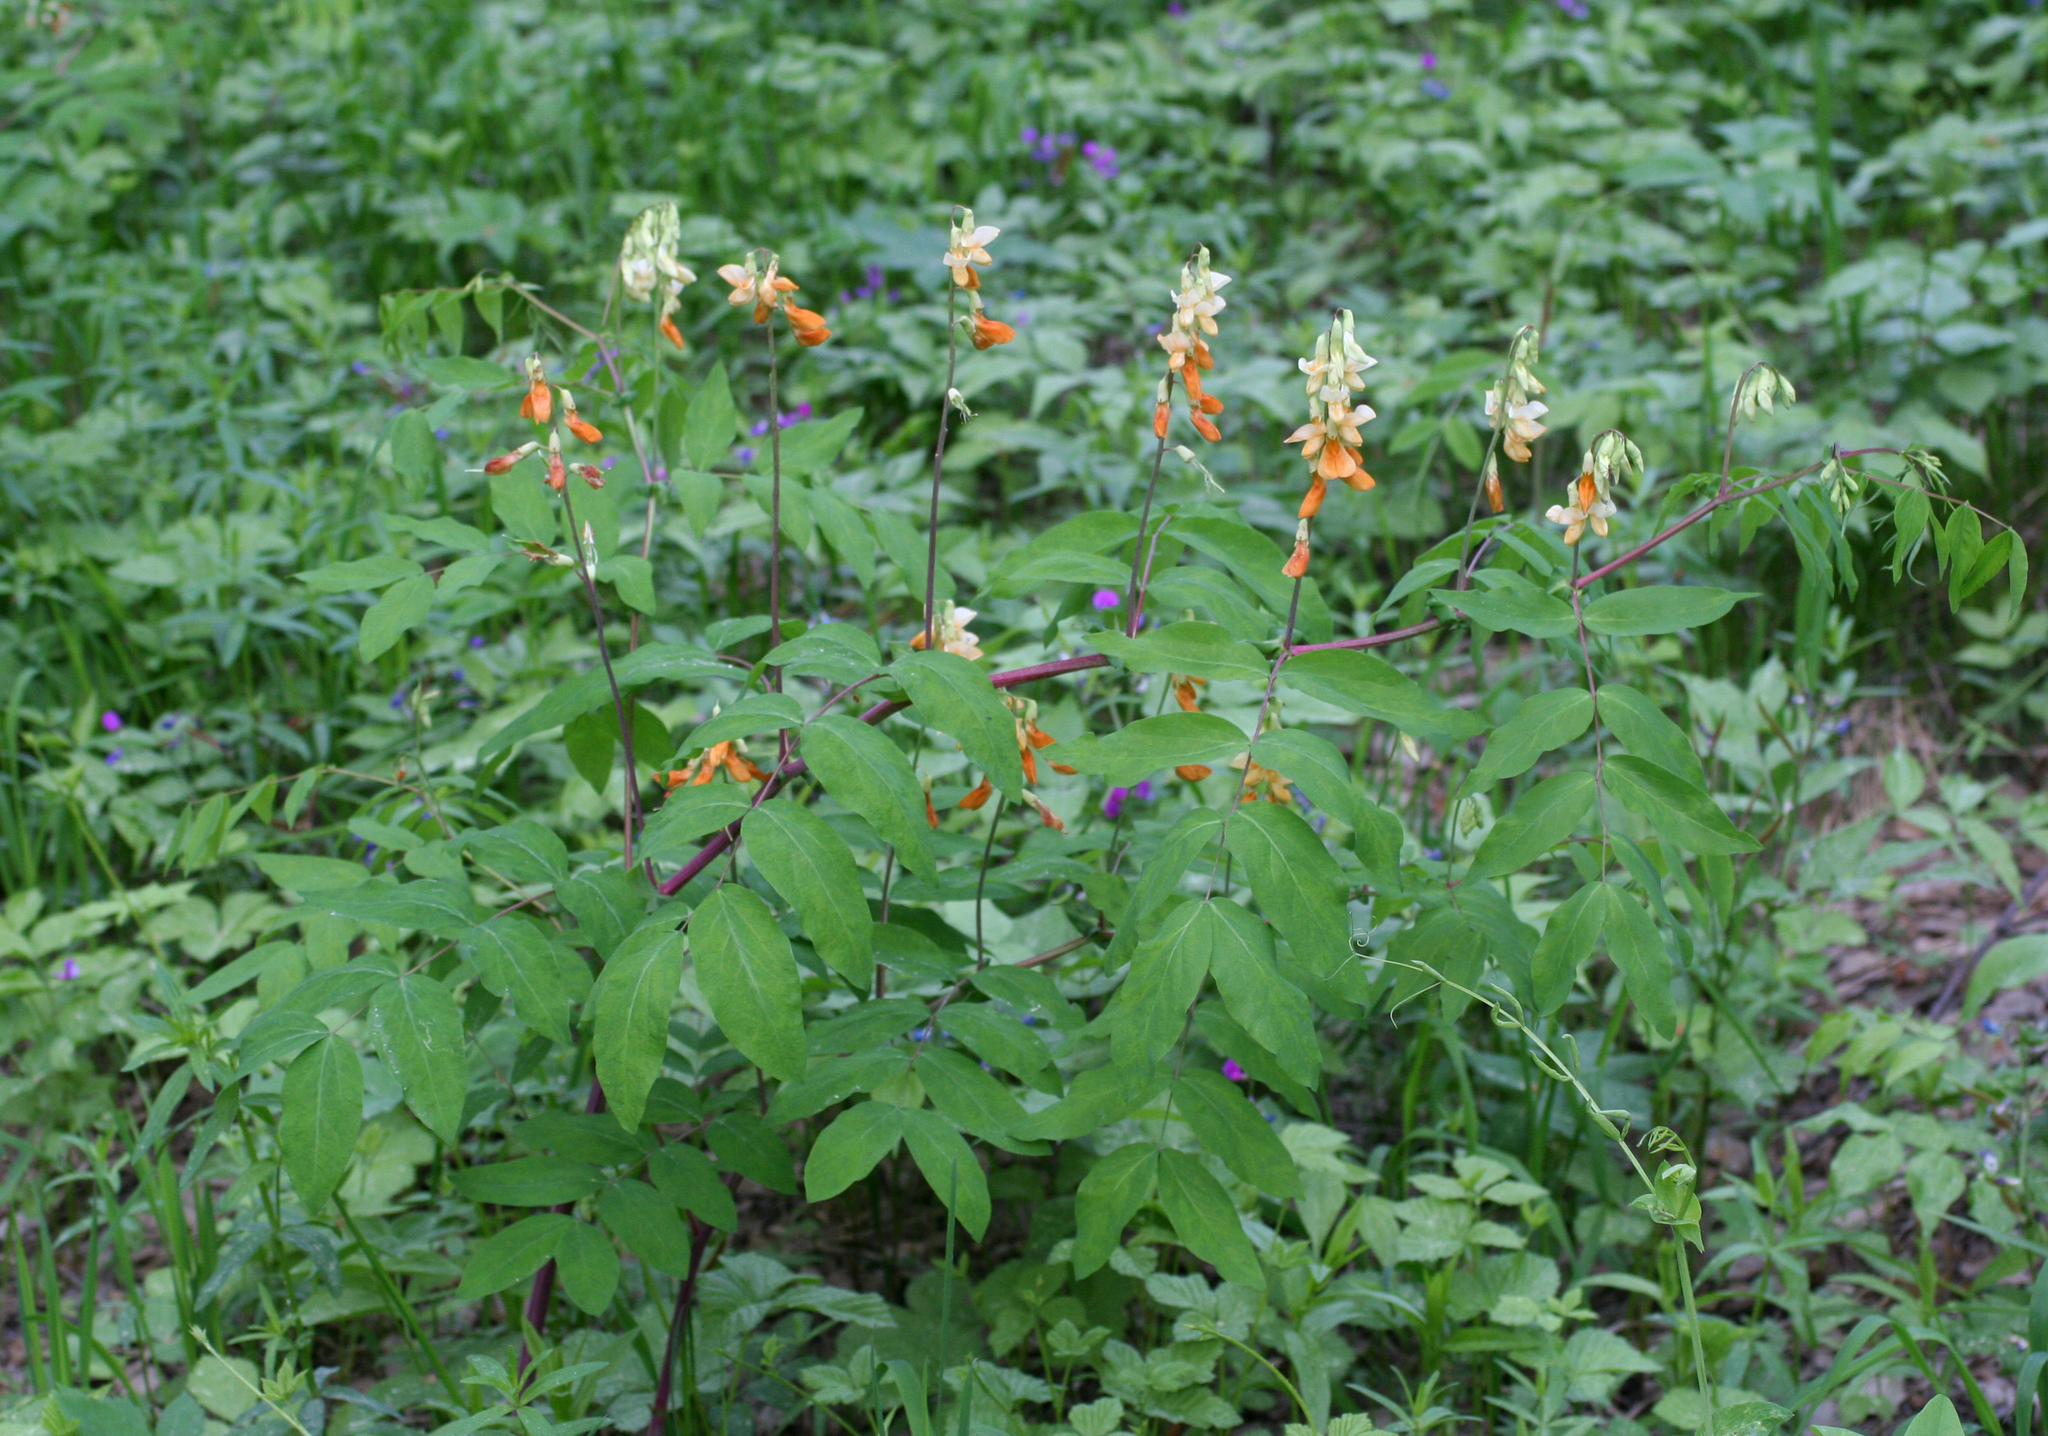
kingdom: Plantae
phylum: Tracheophyta
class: Magnoliopsida
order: Fabales
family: Fabaceae
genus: Lathyrus
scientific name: Lathyrus gmelinii
